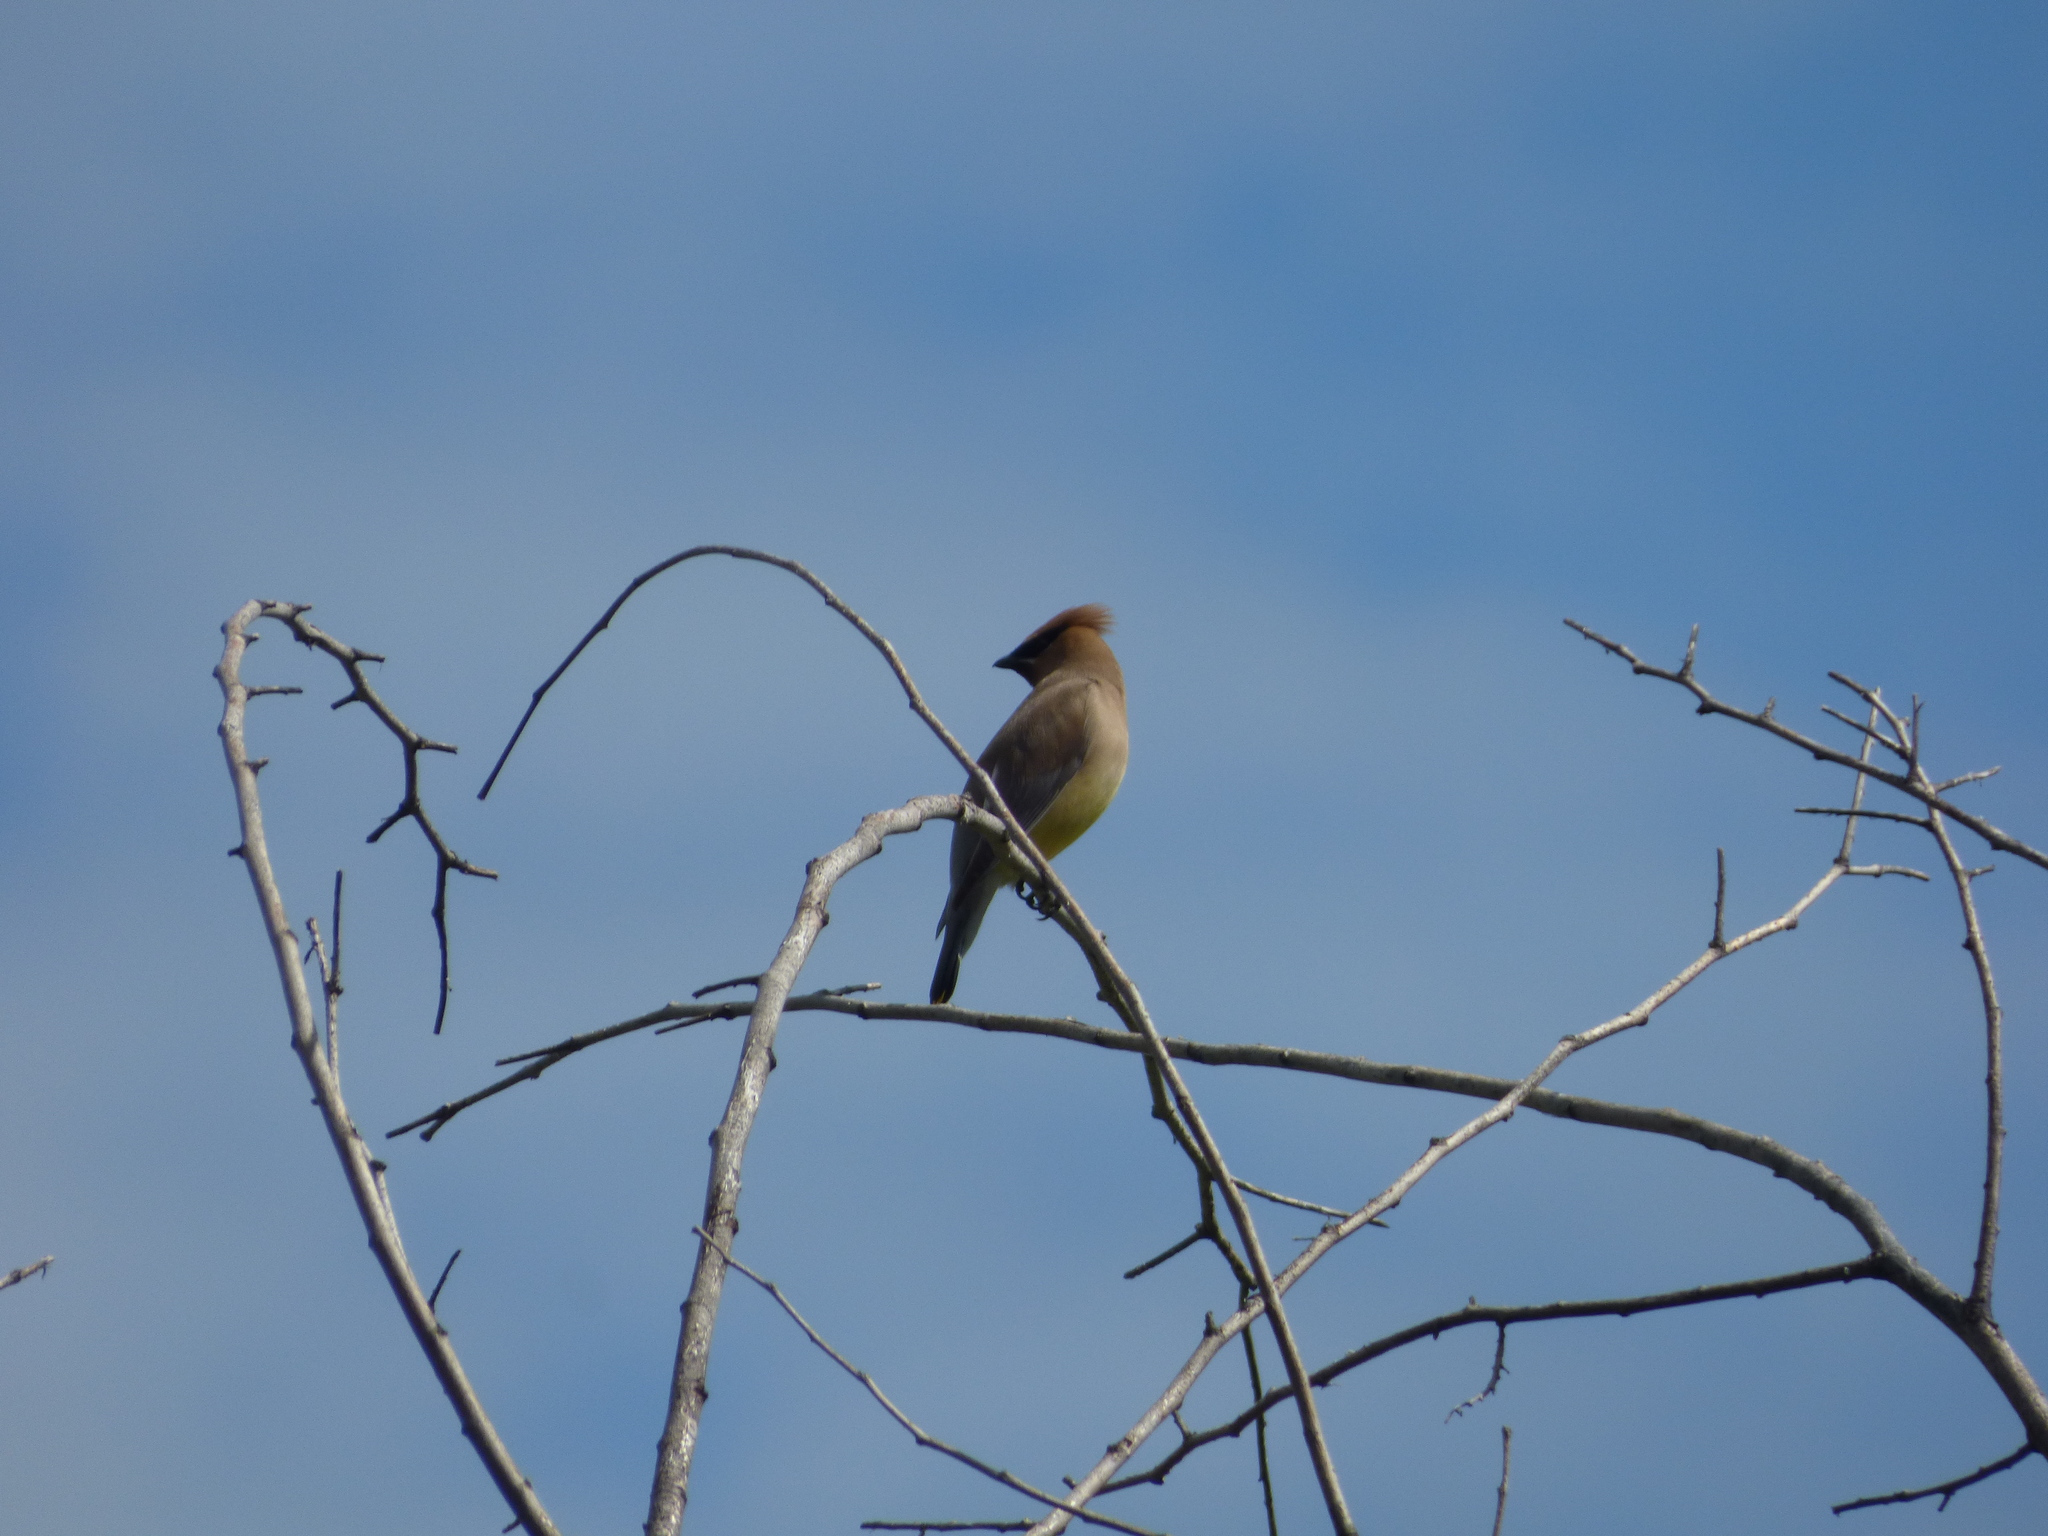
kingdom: Animalia
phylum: Chordata
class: Aves
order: Passeriformes
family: Bombycillidae
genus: Bombycilla
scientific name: Bombycilla cedrorum
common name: Cedar waxwing
